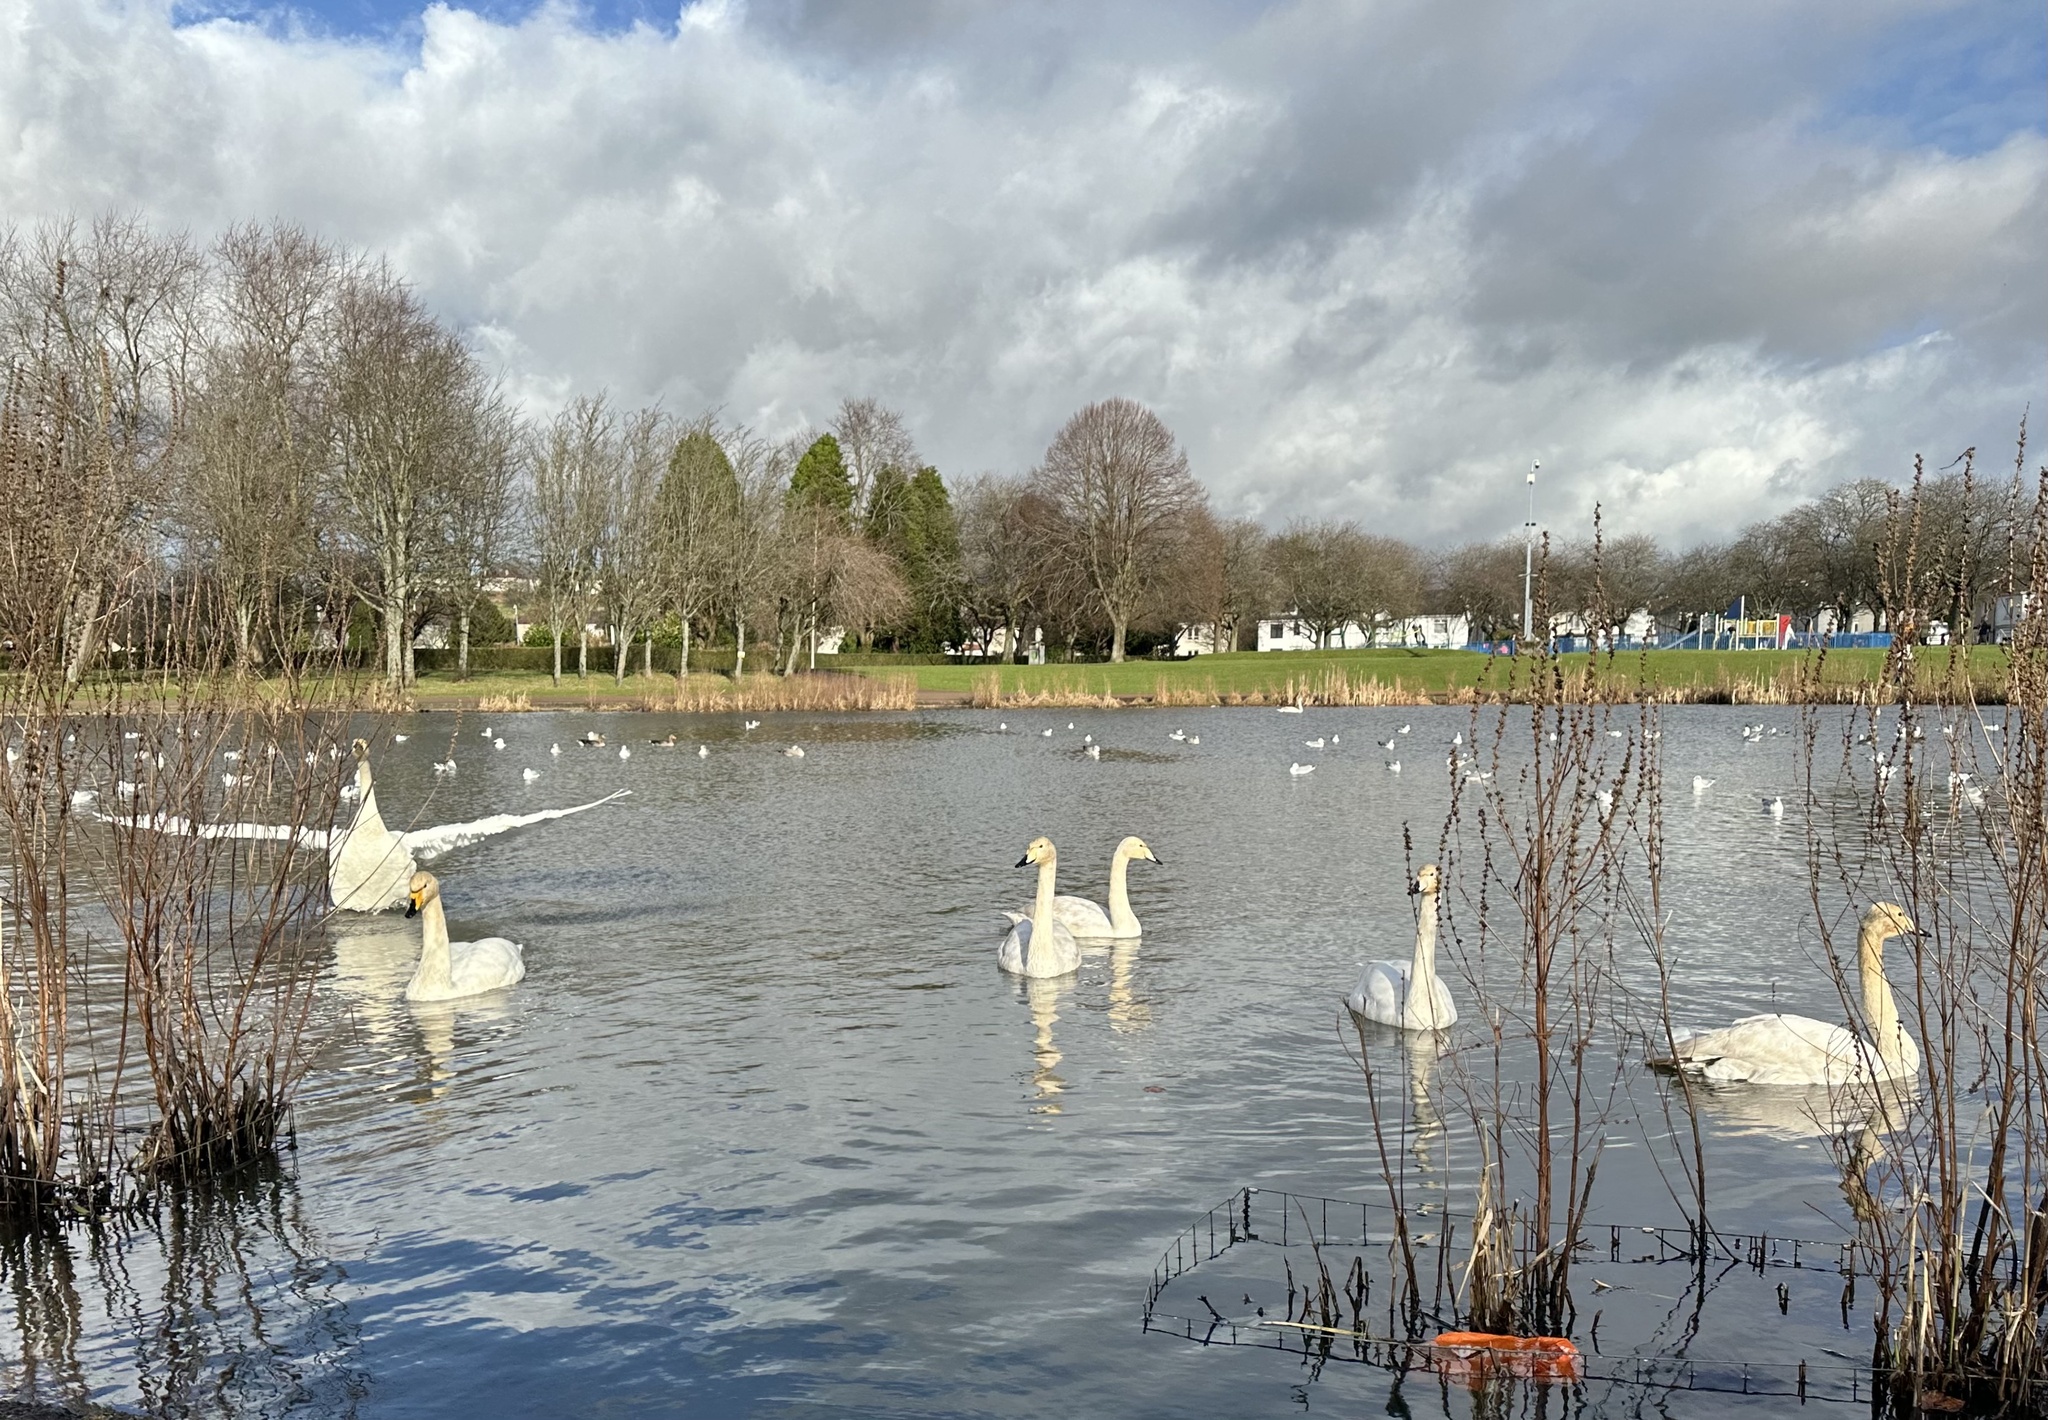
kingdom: Animalia
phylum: Chordata
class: Aves
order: Anseriformes
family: Anatidae
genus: Cygnus
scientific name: Cygnus cygnus
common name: Whooper swan
